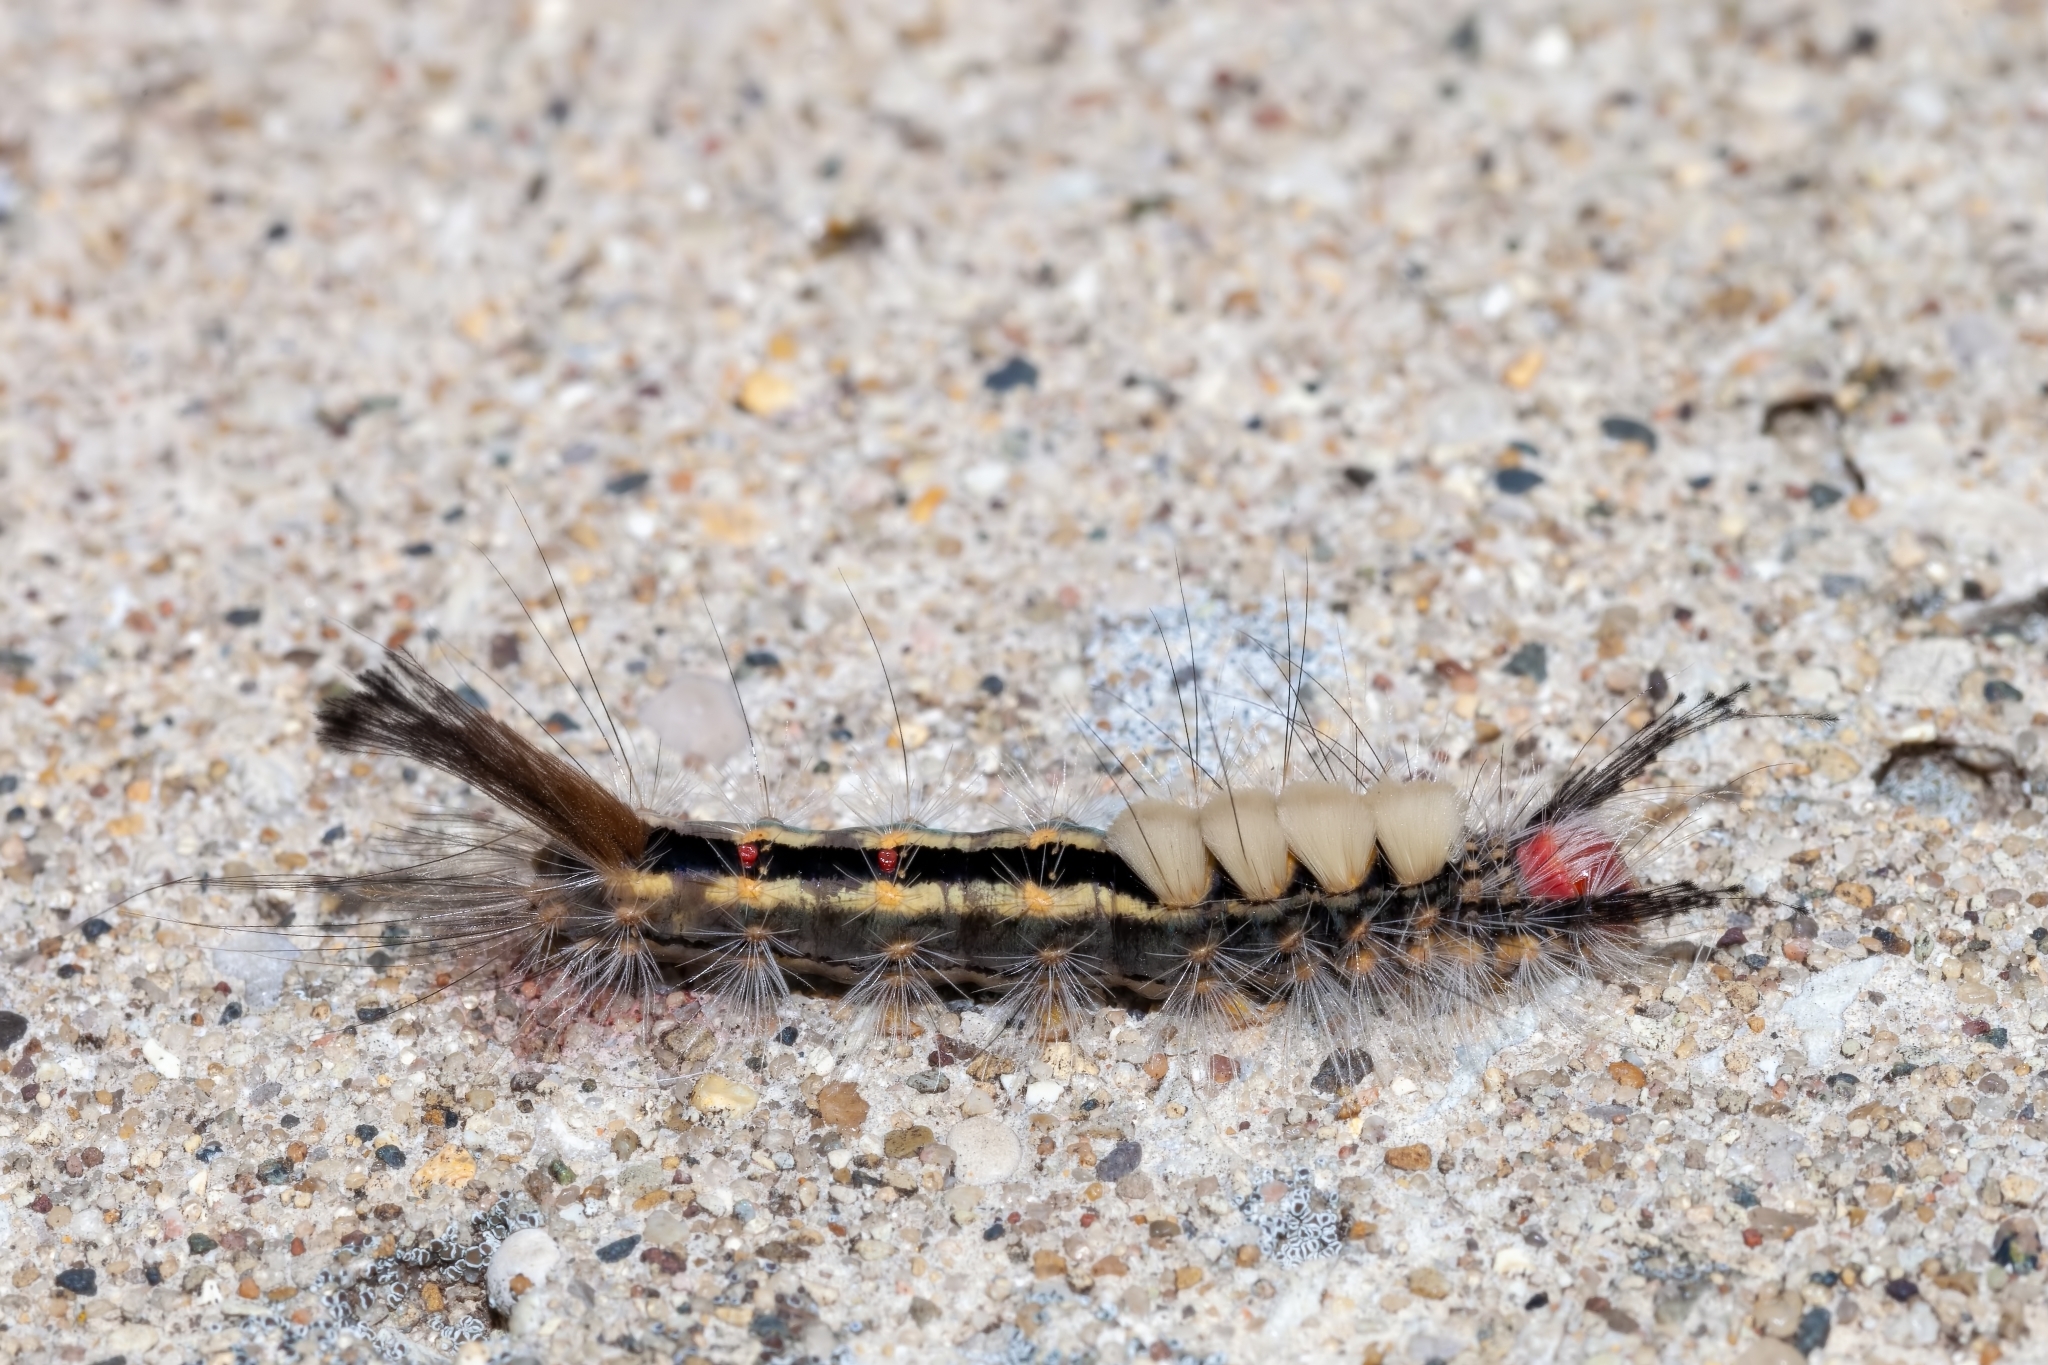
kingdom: Animalia
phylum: Arthropoda
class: Insecta
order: Lepidoptera
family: Erebidae
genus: Orgyia
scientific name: Orgyia leucostigma
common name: White-marked tussock moth
